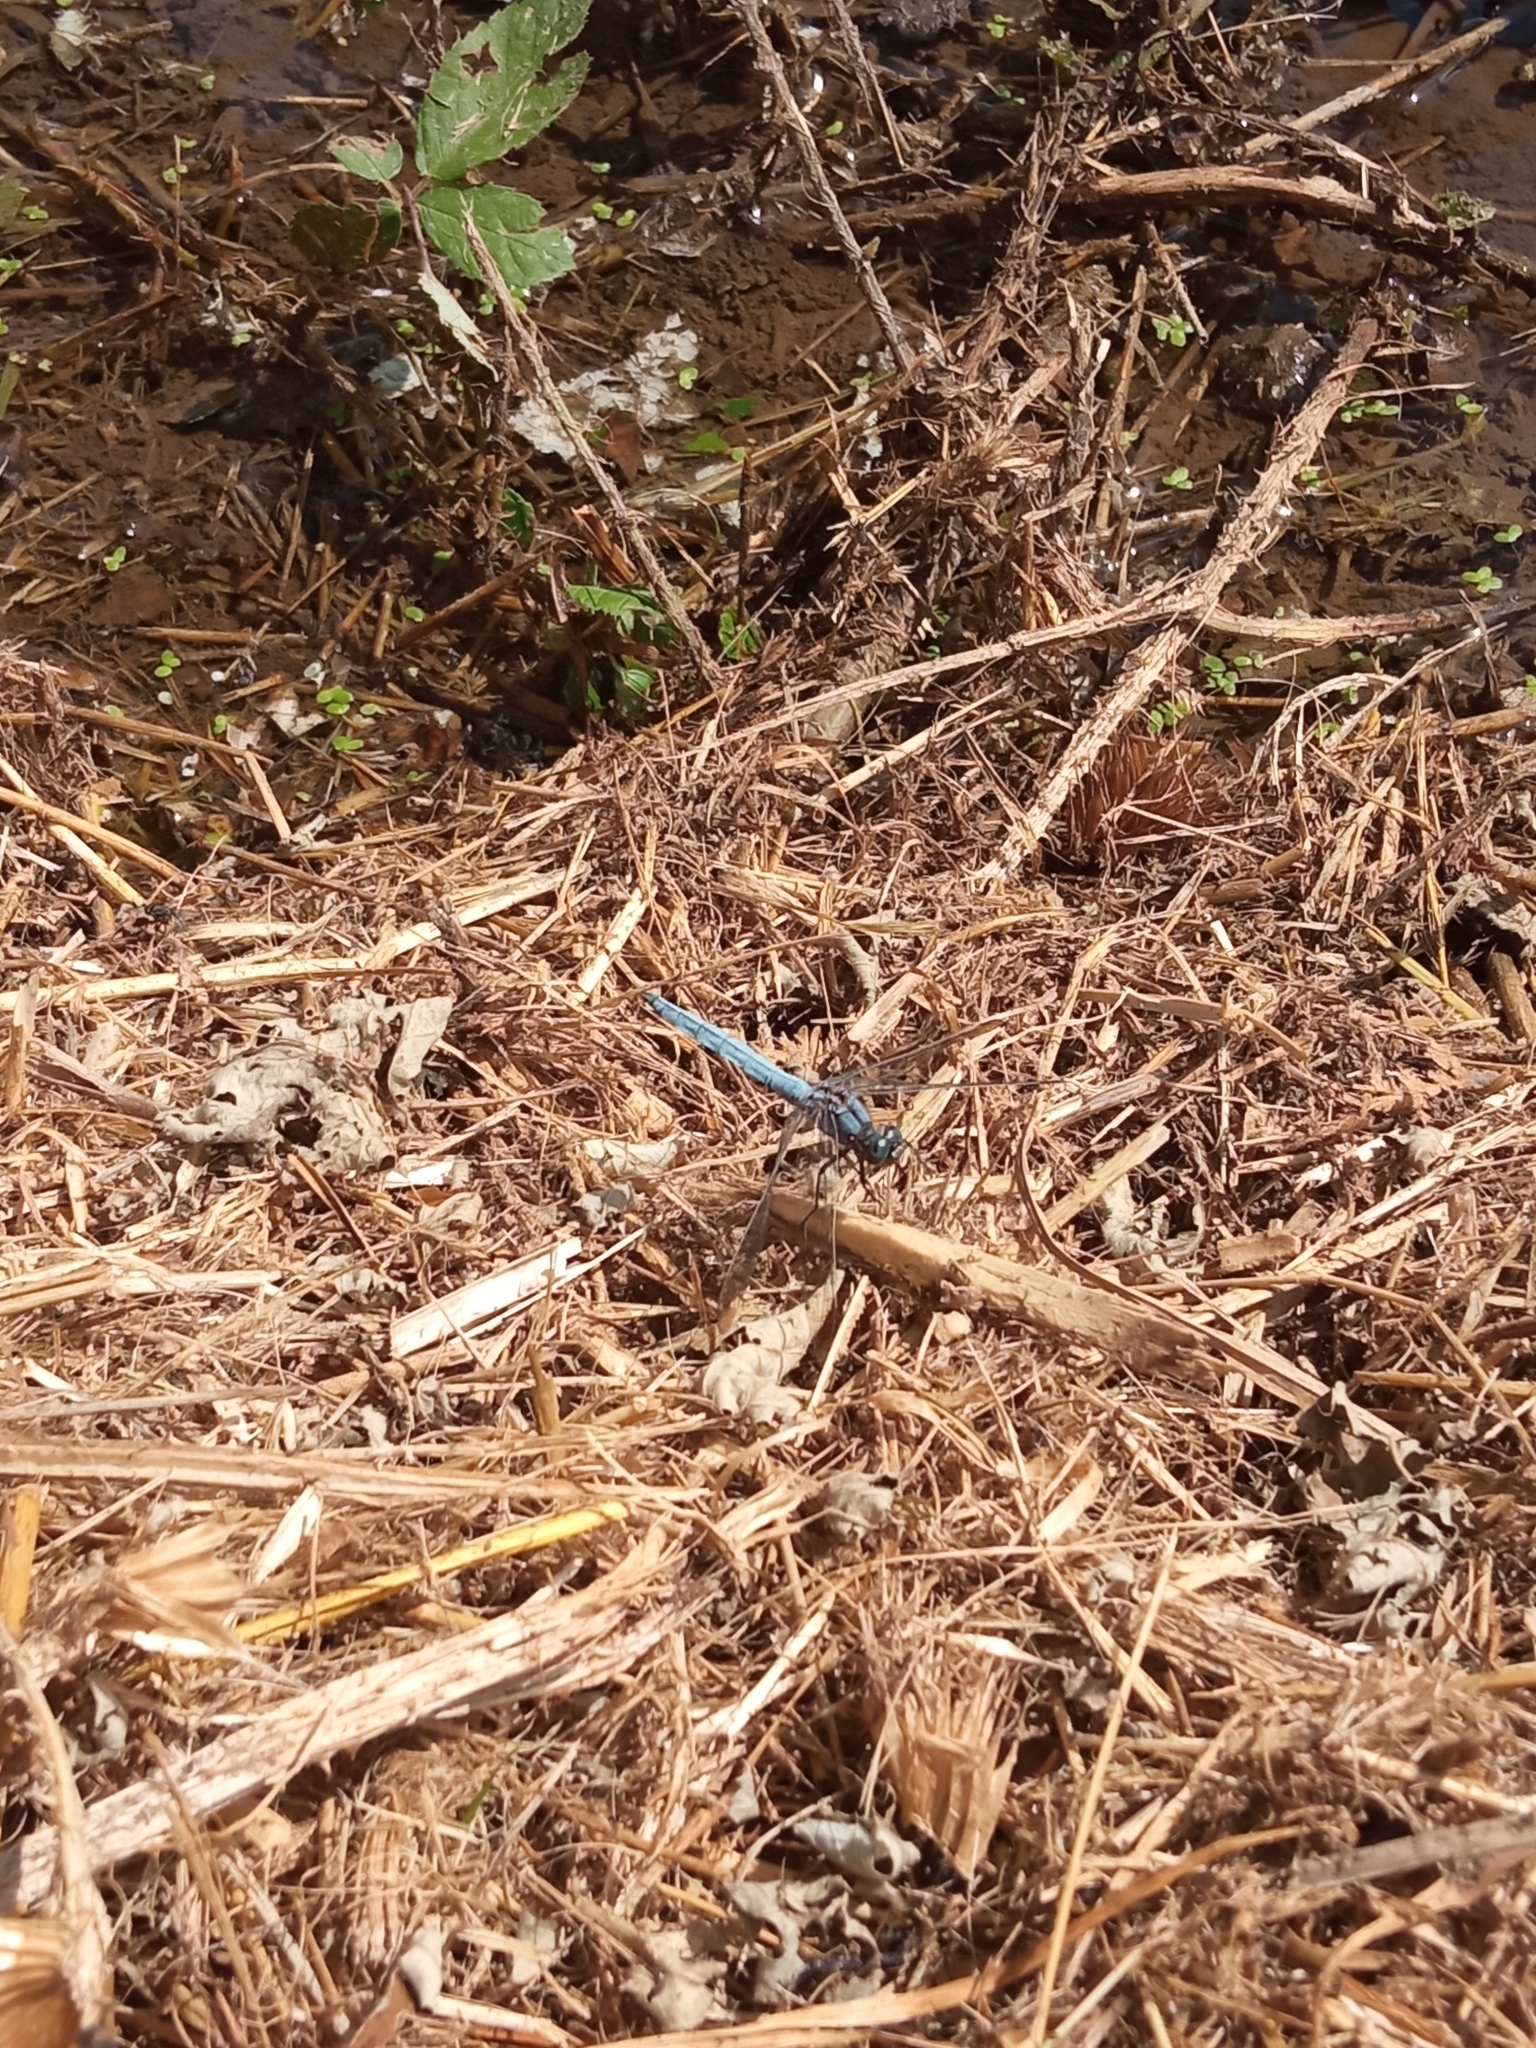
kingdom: Animalia
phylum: Arthropoda
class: Insecta
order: Odonata
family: Libellulidae
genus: Orthetrum
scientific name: Orthetrum coerulescens
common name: Keeled skimmer
